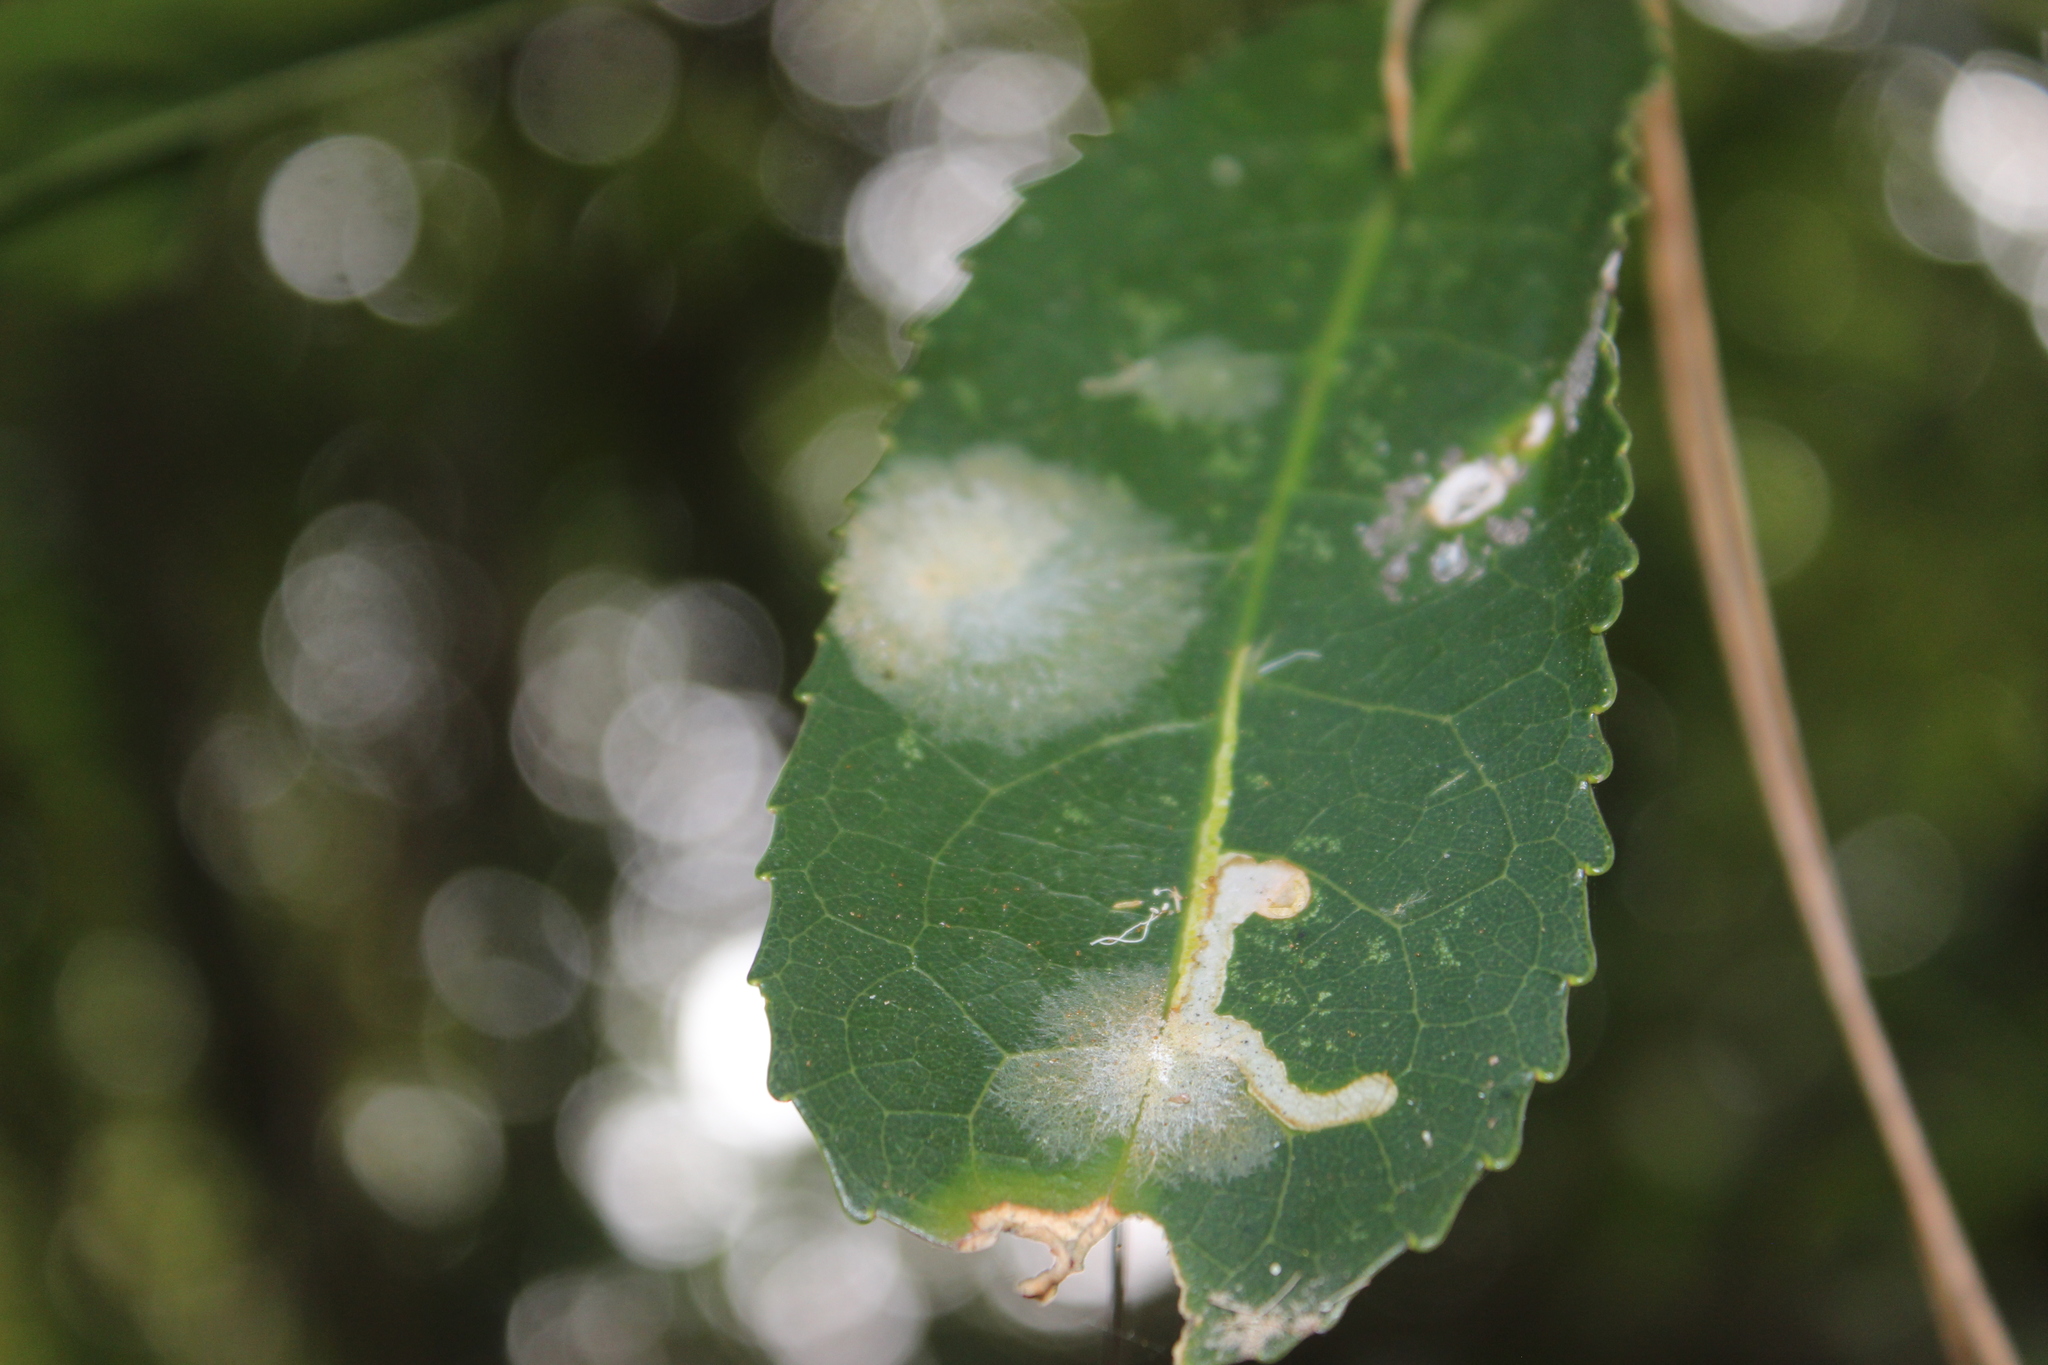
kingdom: Plantae
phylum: Chlorophyta
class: Ulvophyceae
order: Trentepohliales
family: Trentepohliaceae
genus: Cephaleuros
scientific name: Cephaleuros
